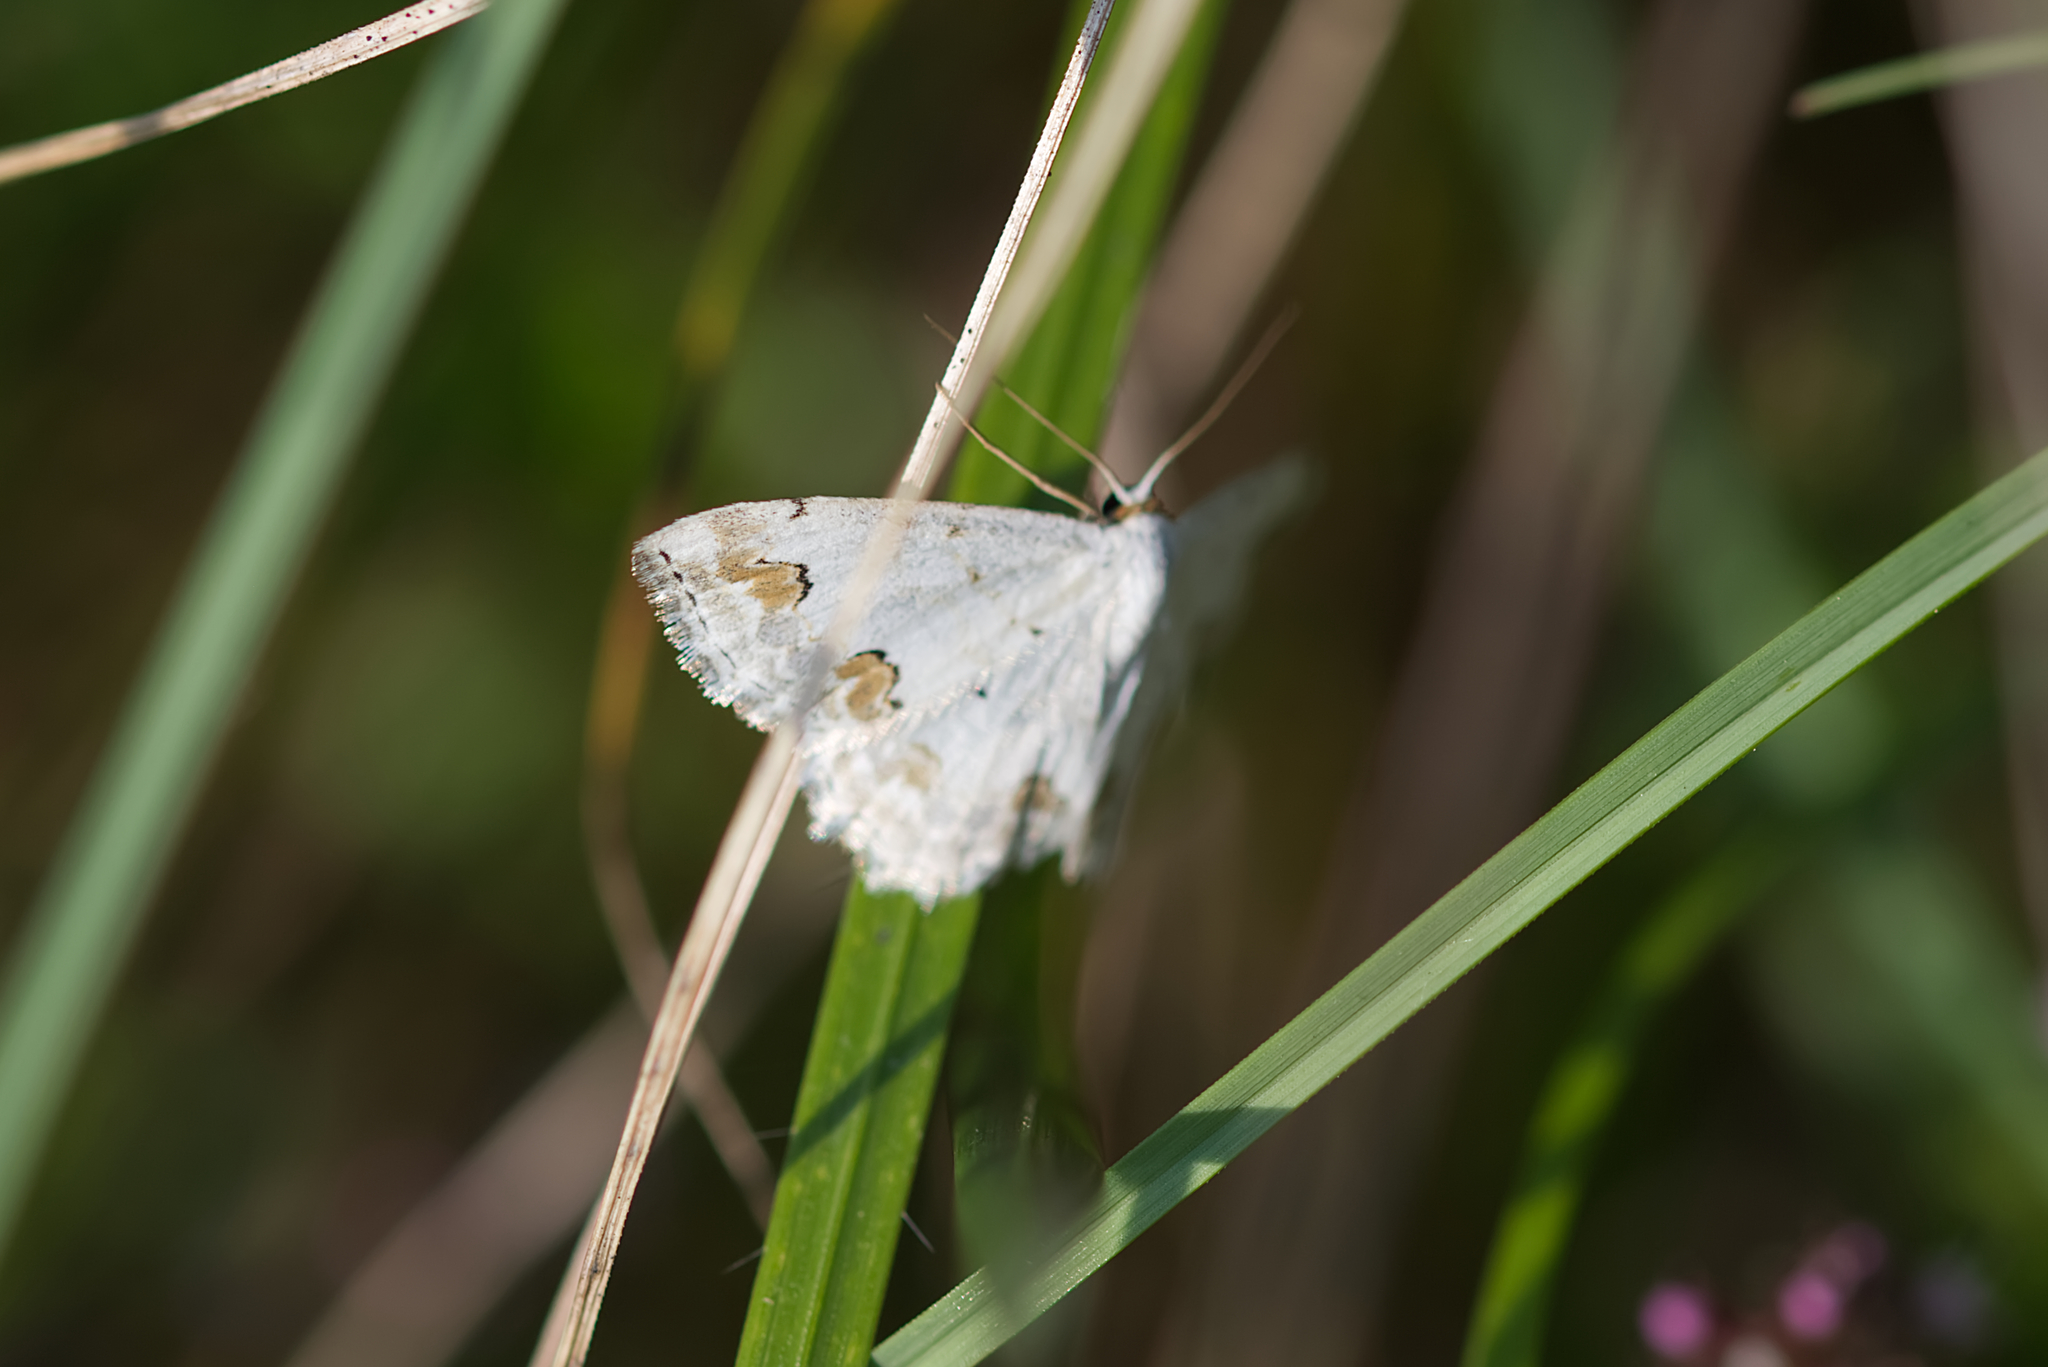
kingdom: Animalia
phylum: Arthropoda
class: Insecta
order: Lepidoptera
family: Geometridae
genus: Scopula
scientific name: Scopula ornata
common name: Lace border
